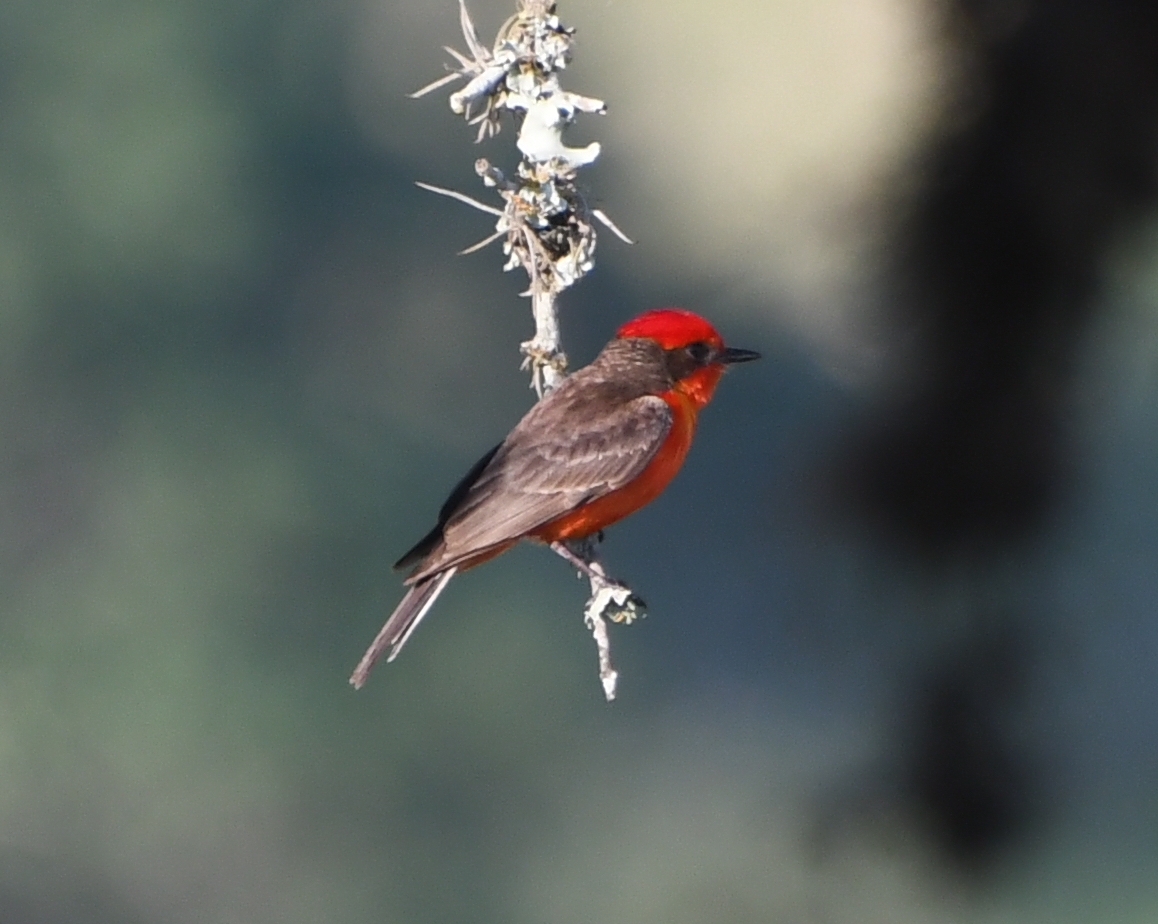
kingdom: Animalia
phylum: Chordata
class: Aves
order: Passeriformes
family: Tyrannidae
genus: Pyrocephalus
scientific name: Pyrocephalus rubinus
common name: Vermilion flycatcher
